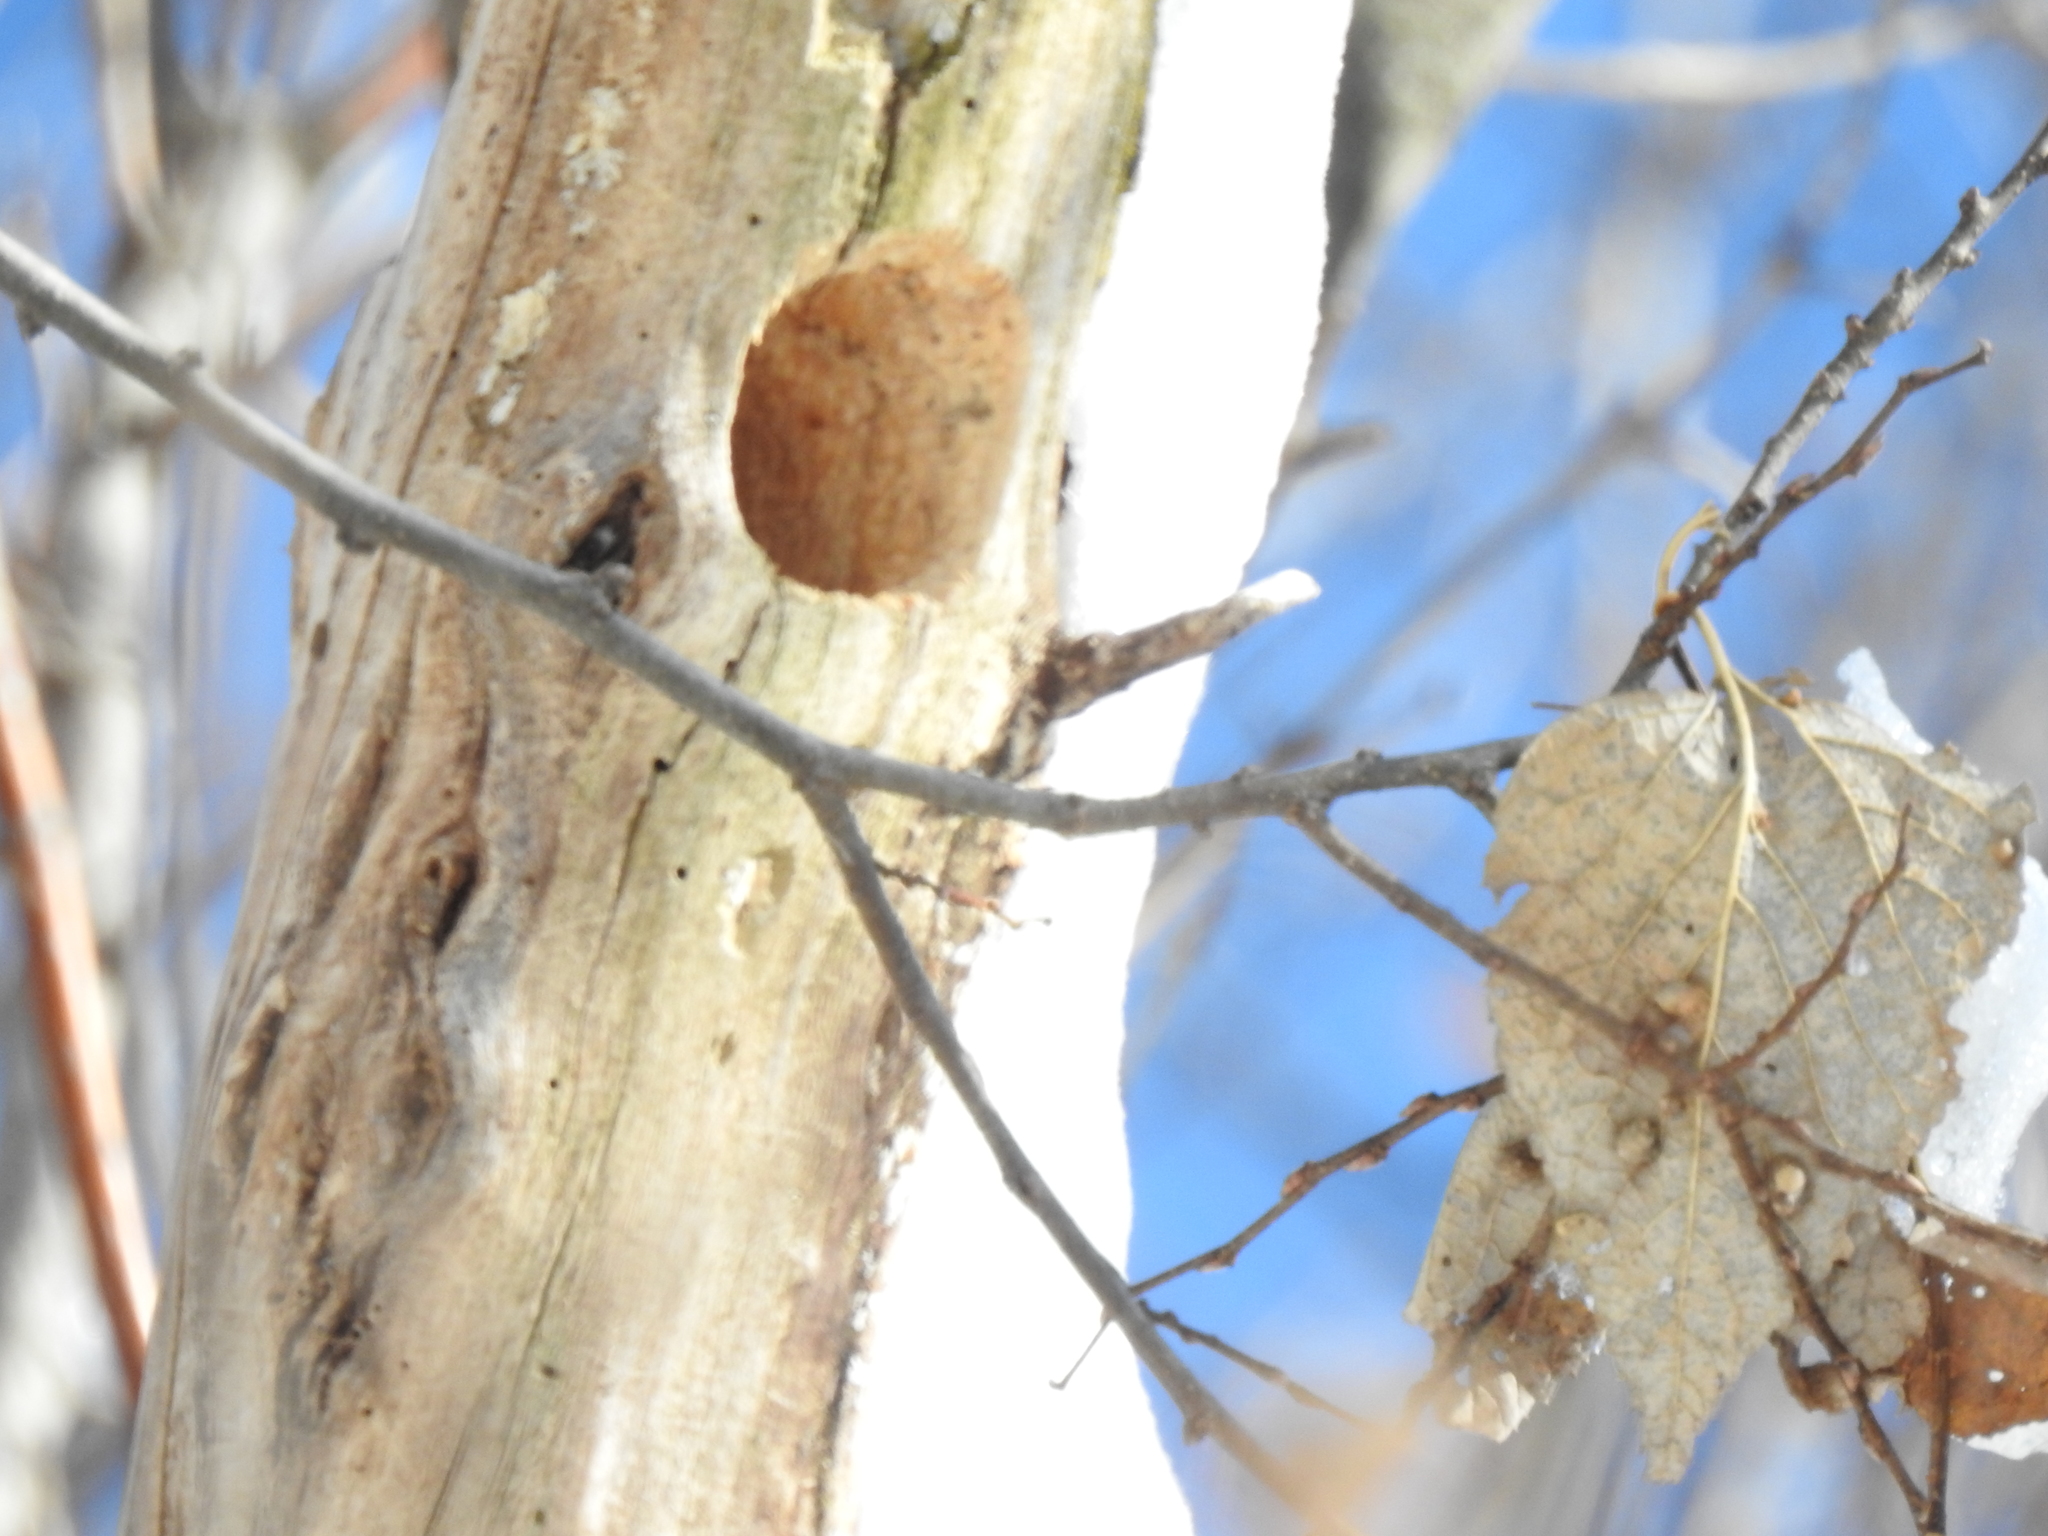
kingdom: Animalia
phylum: Chordata
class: Aves
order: Passeriformes
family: Paridae
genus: Poecile
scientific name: Poecile atricapillus
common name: Black-capped chickadee
